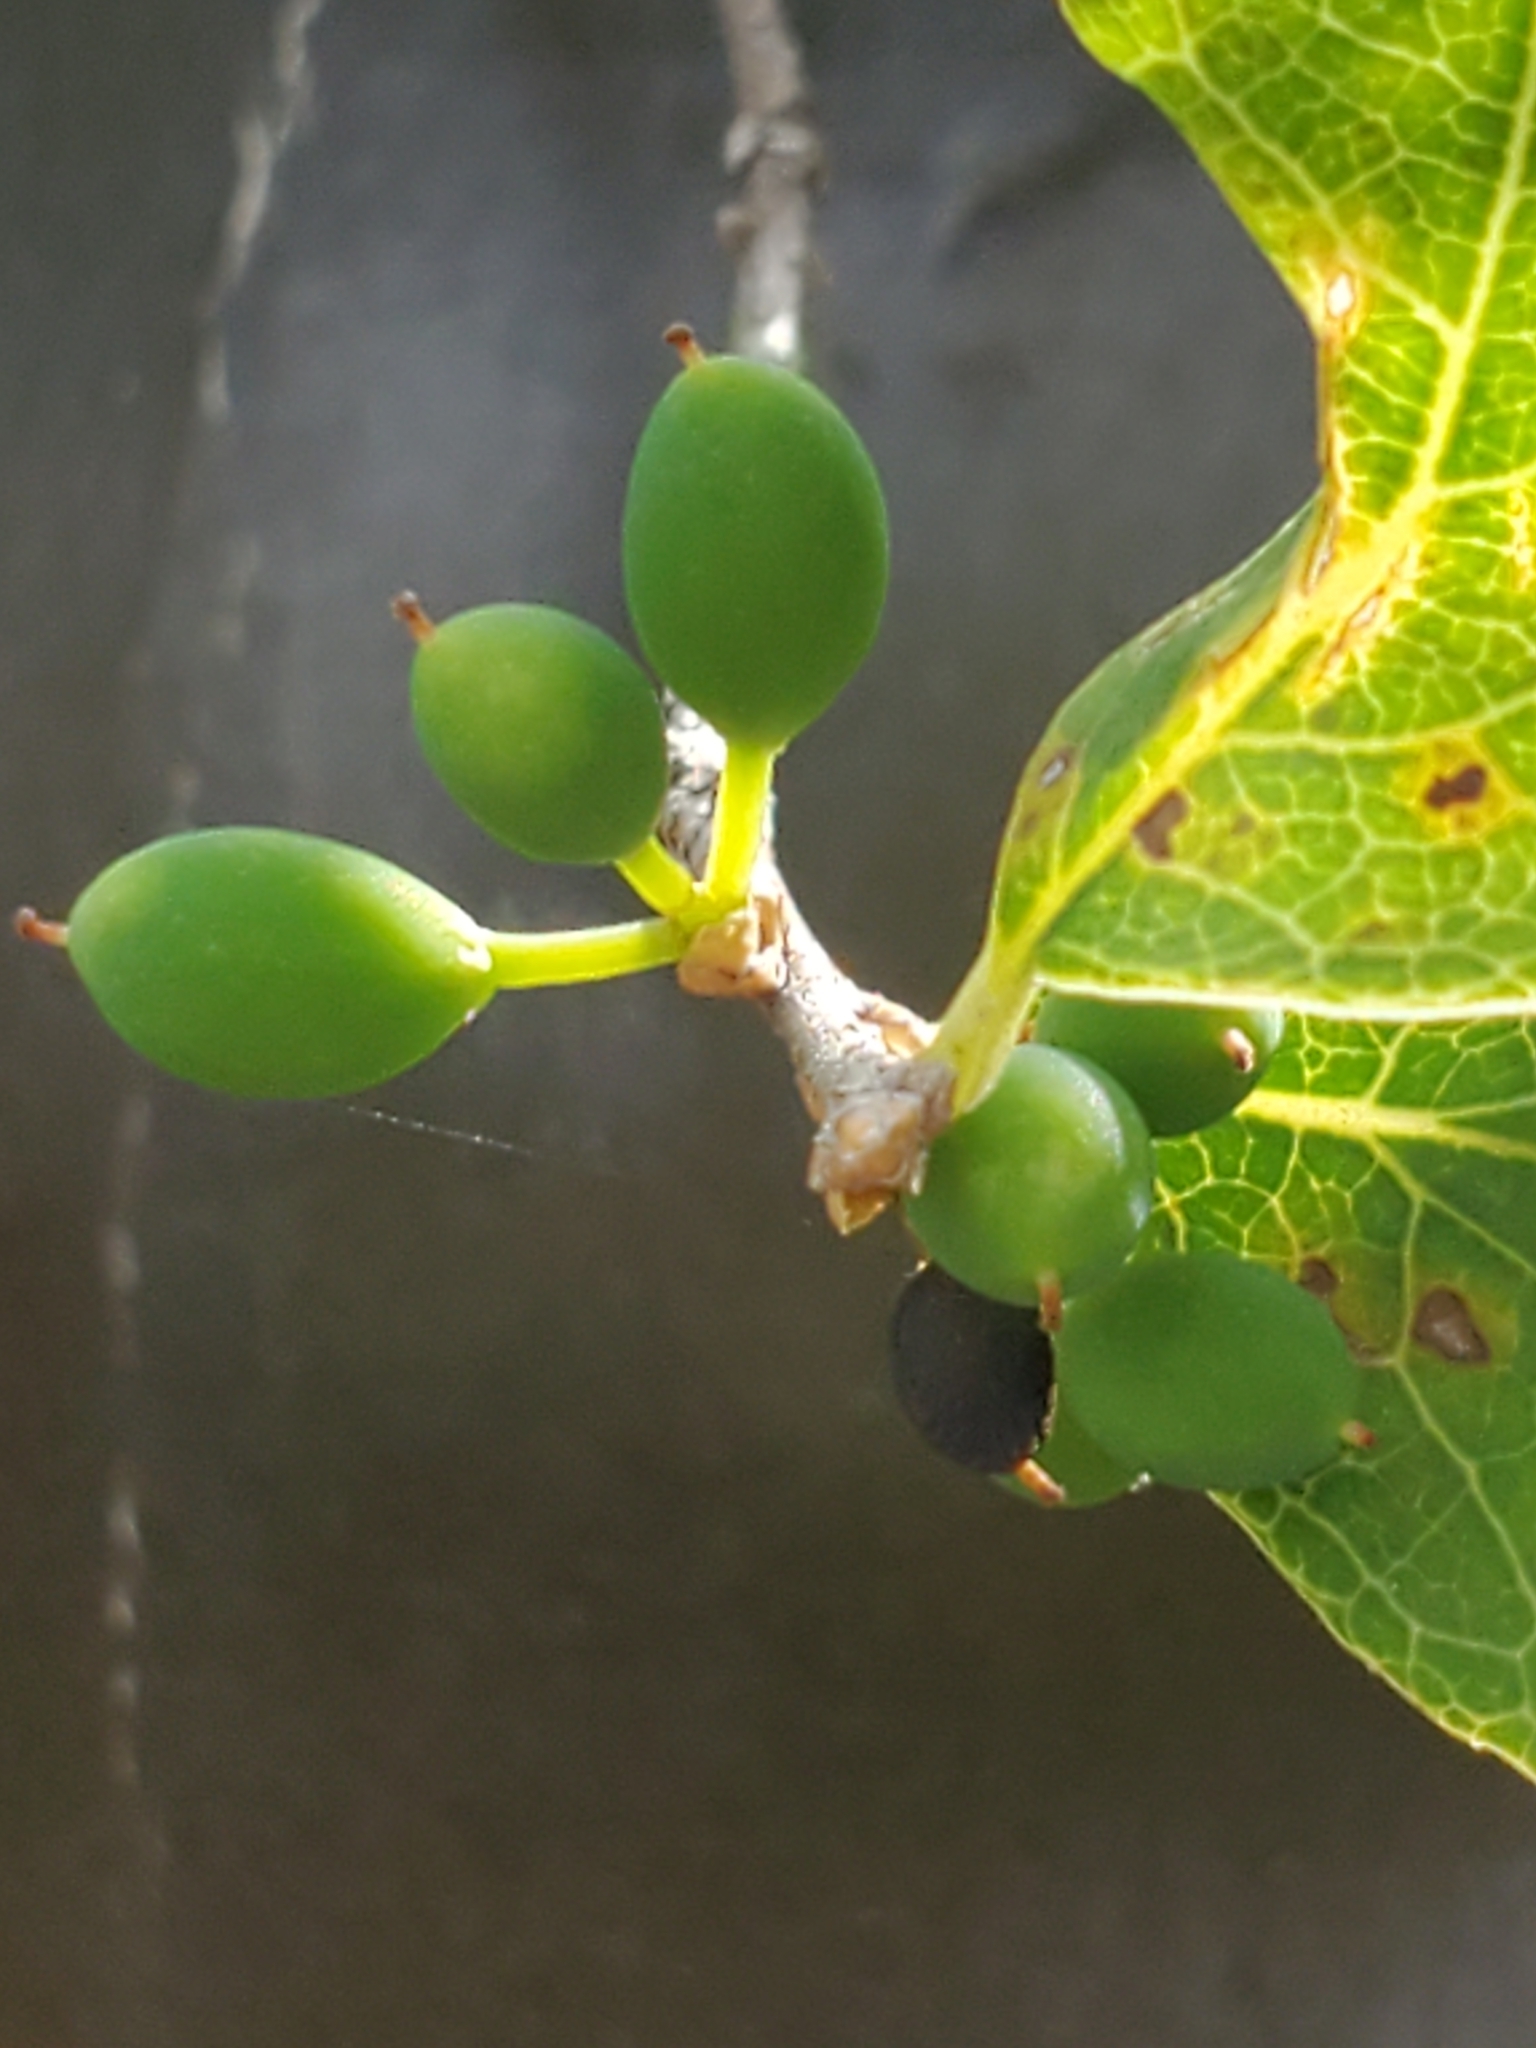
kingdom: Plantae
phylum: Tracheophyta
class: Magnoliopsida
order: Lamiales
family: Oleaceae
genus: Forestiera
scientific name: Forestiera reticulata
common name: Netleaf swamp-privet
